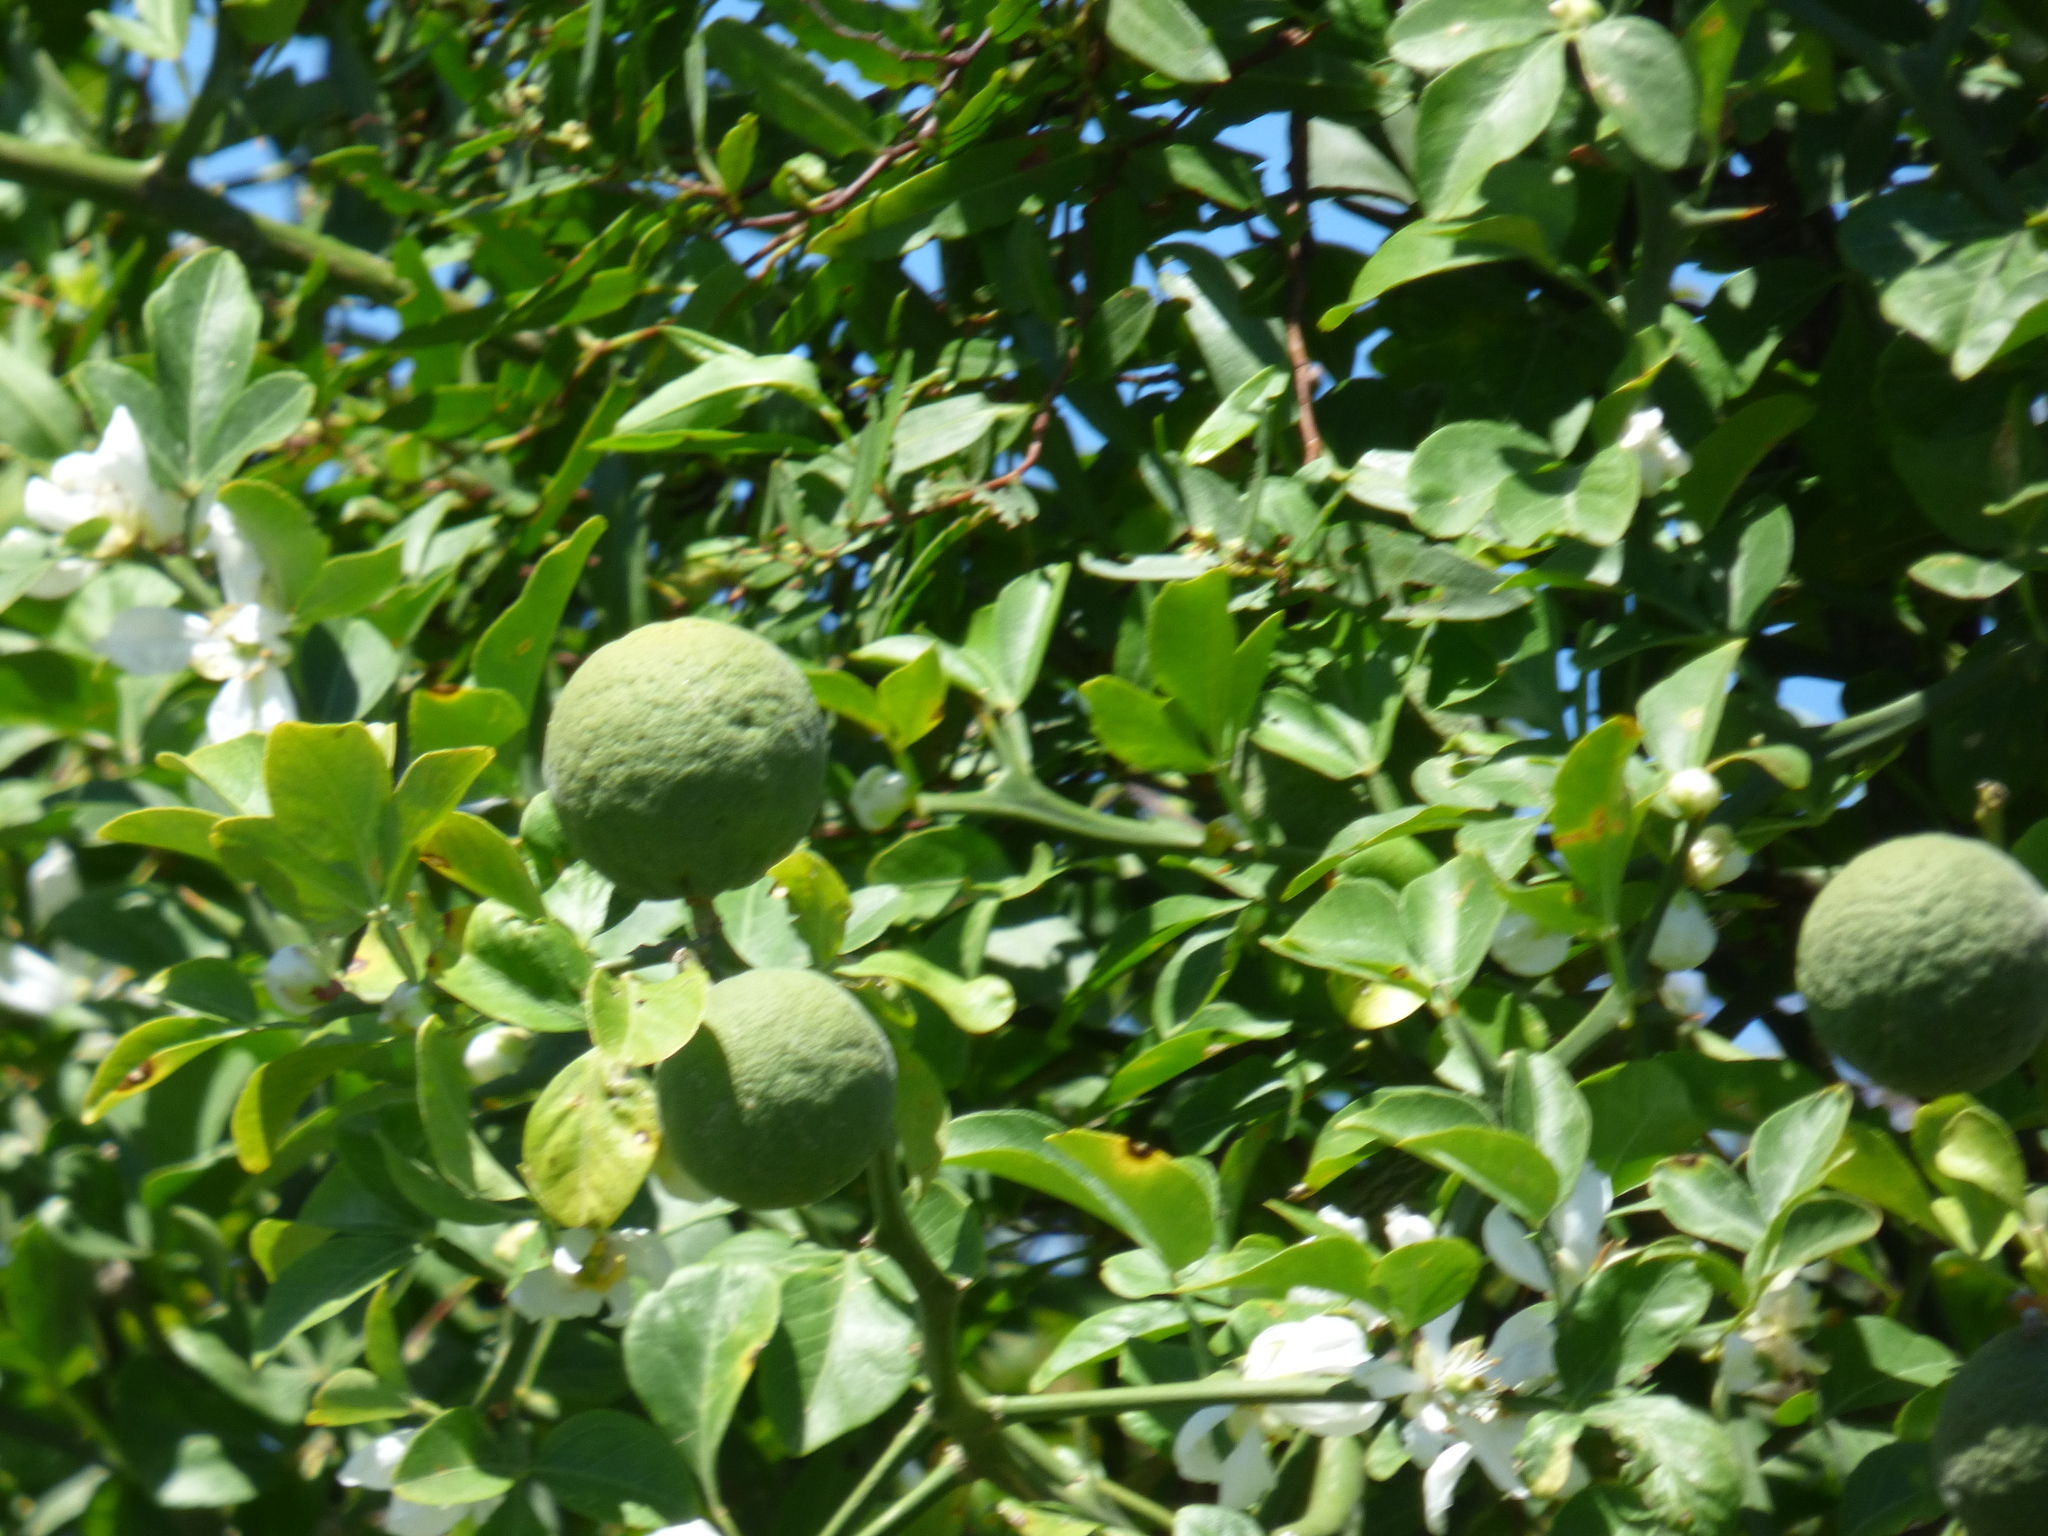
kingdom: Plantae
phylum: Tracheophyta
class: Magnoliopsida
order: Sapindales
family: Rutaceae
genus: Citrus
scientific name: Citrus trifoliata
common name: Japanese bitter-orange
